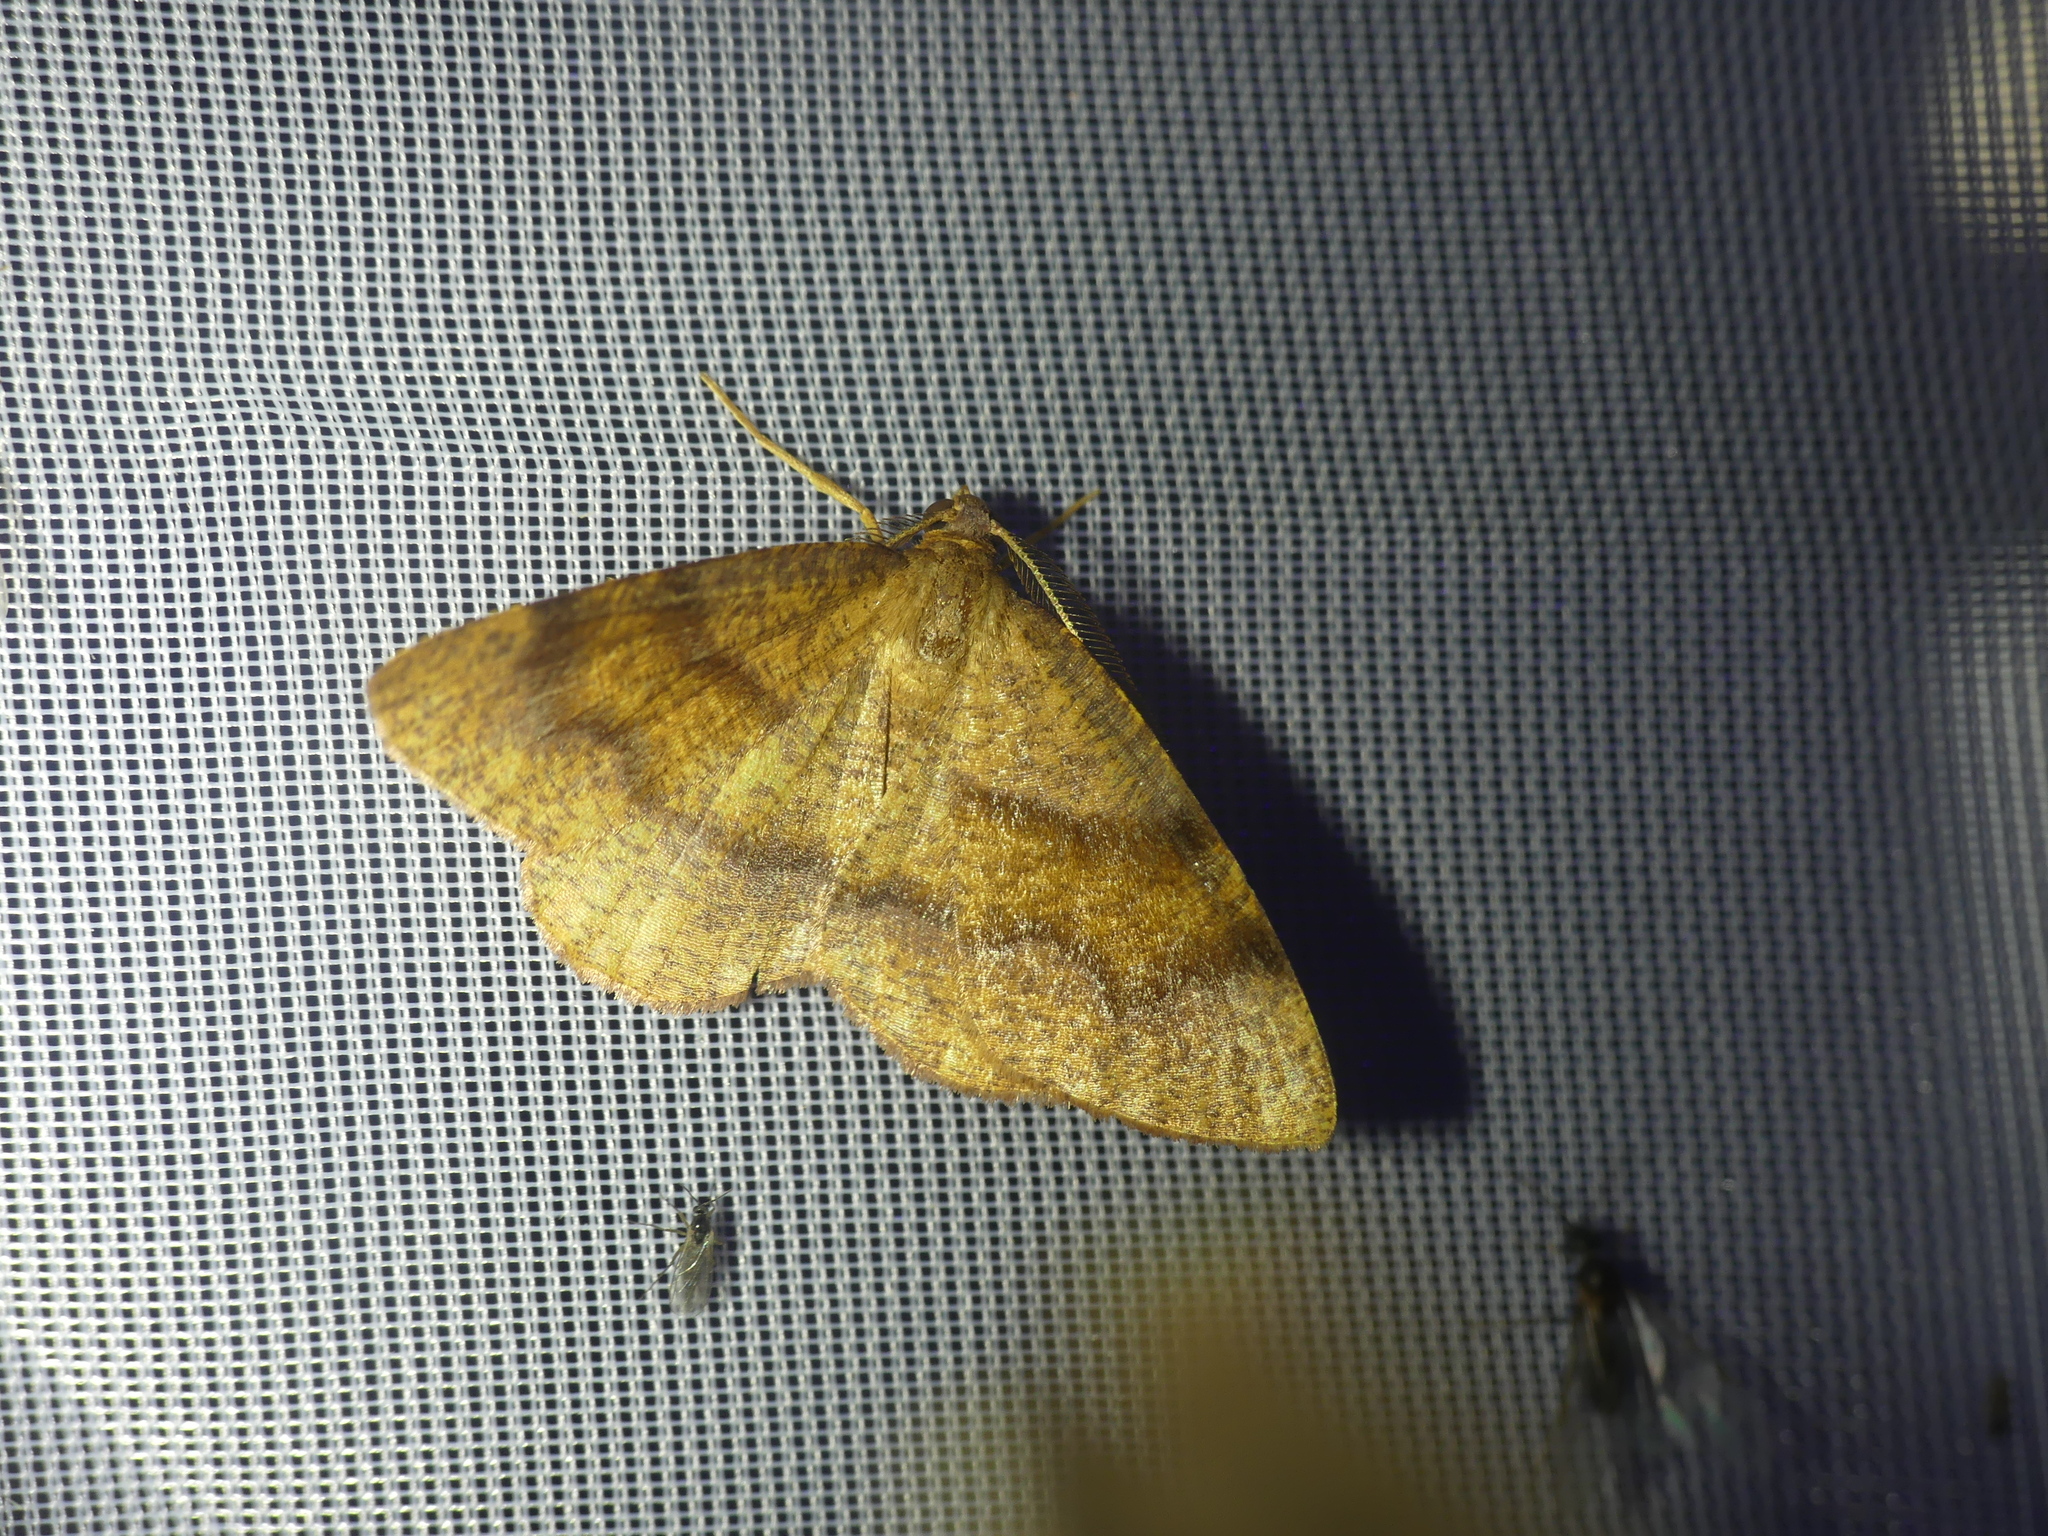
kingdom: Animalia
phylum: Arthropoda
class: Insecta
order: Lepidoptera
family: Geometridae
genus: Plagodis
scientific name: Plagodis pulveraria
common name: Barred umber
